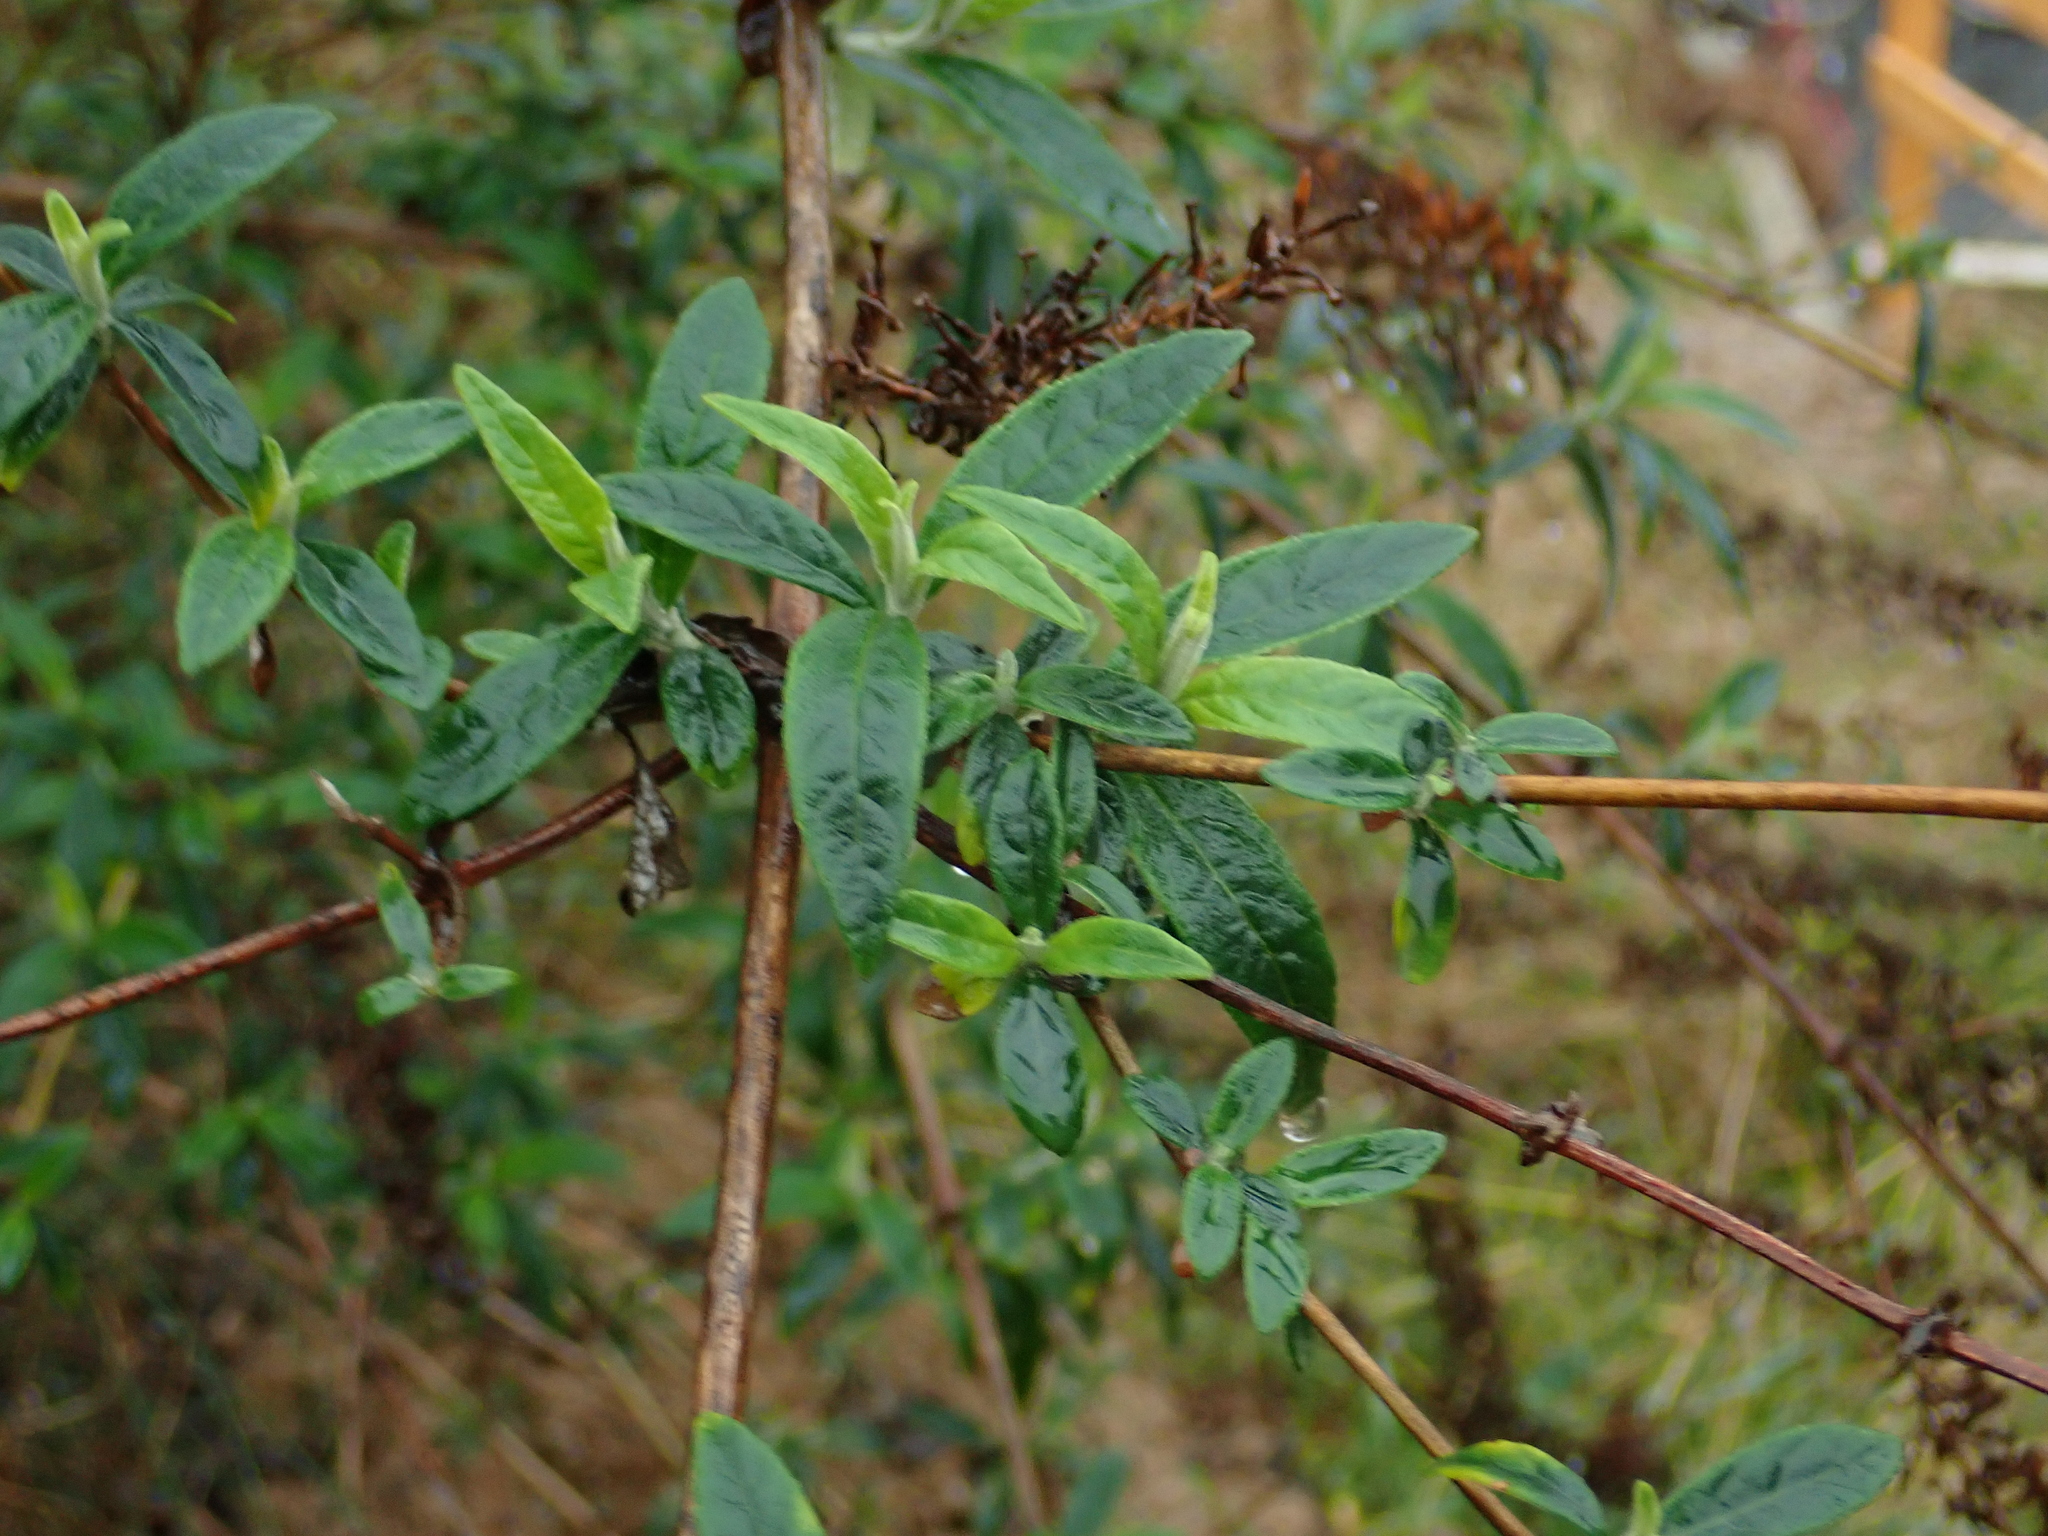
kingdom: Plantae
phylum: Tracheophyta
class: Magnoliopsida
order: Lamiales
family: Scrophulariaceae
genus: Buddleja
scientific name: Buddleja davidii
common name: Butterfly-bush
